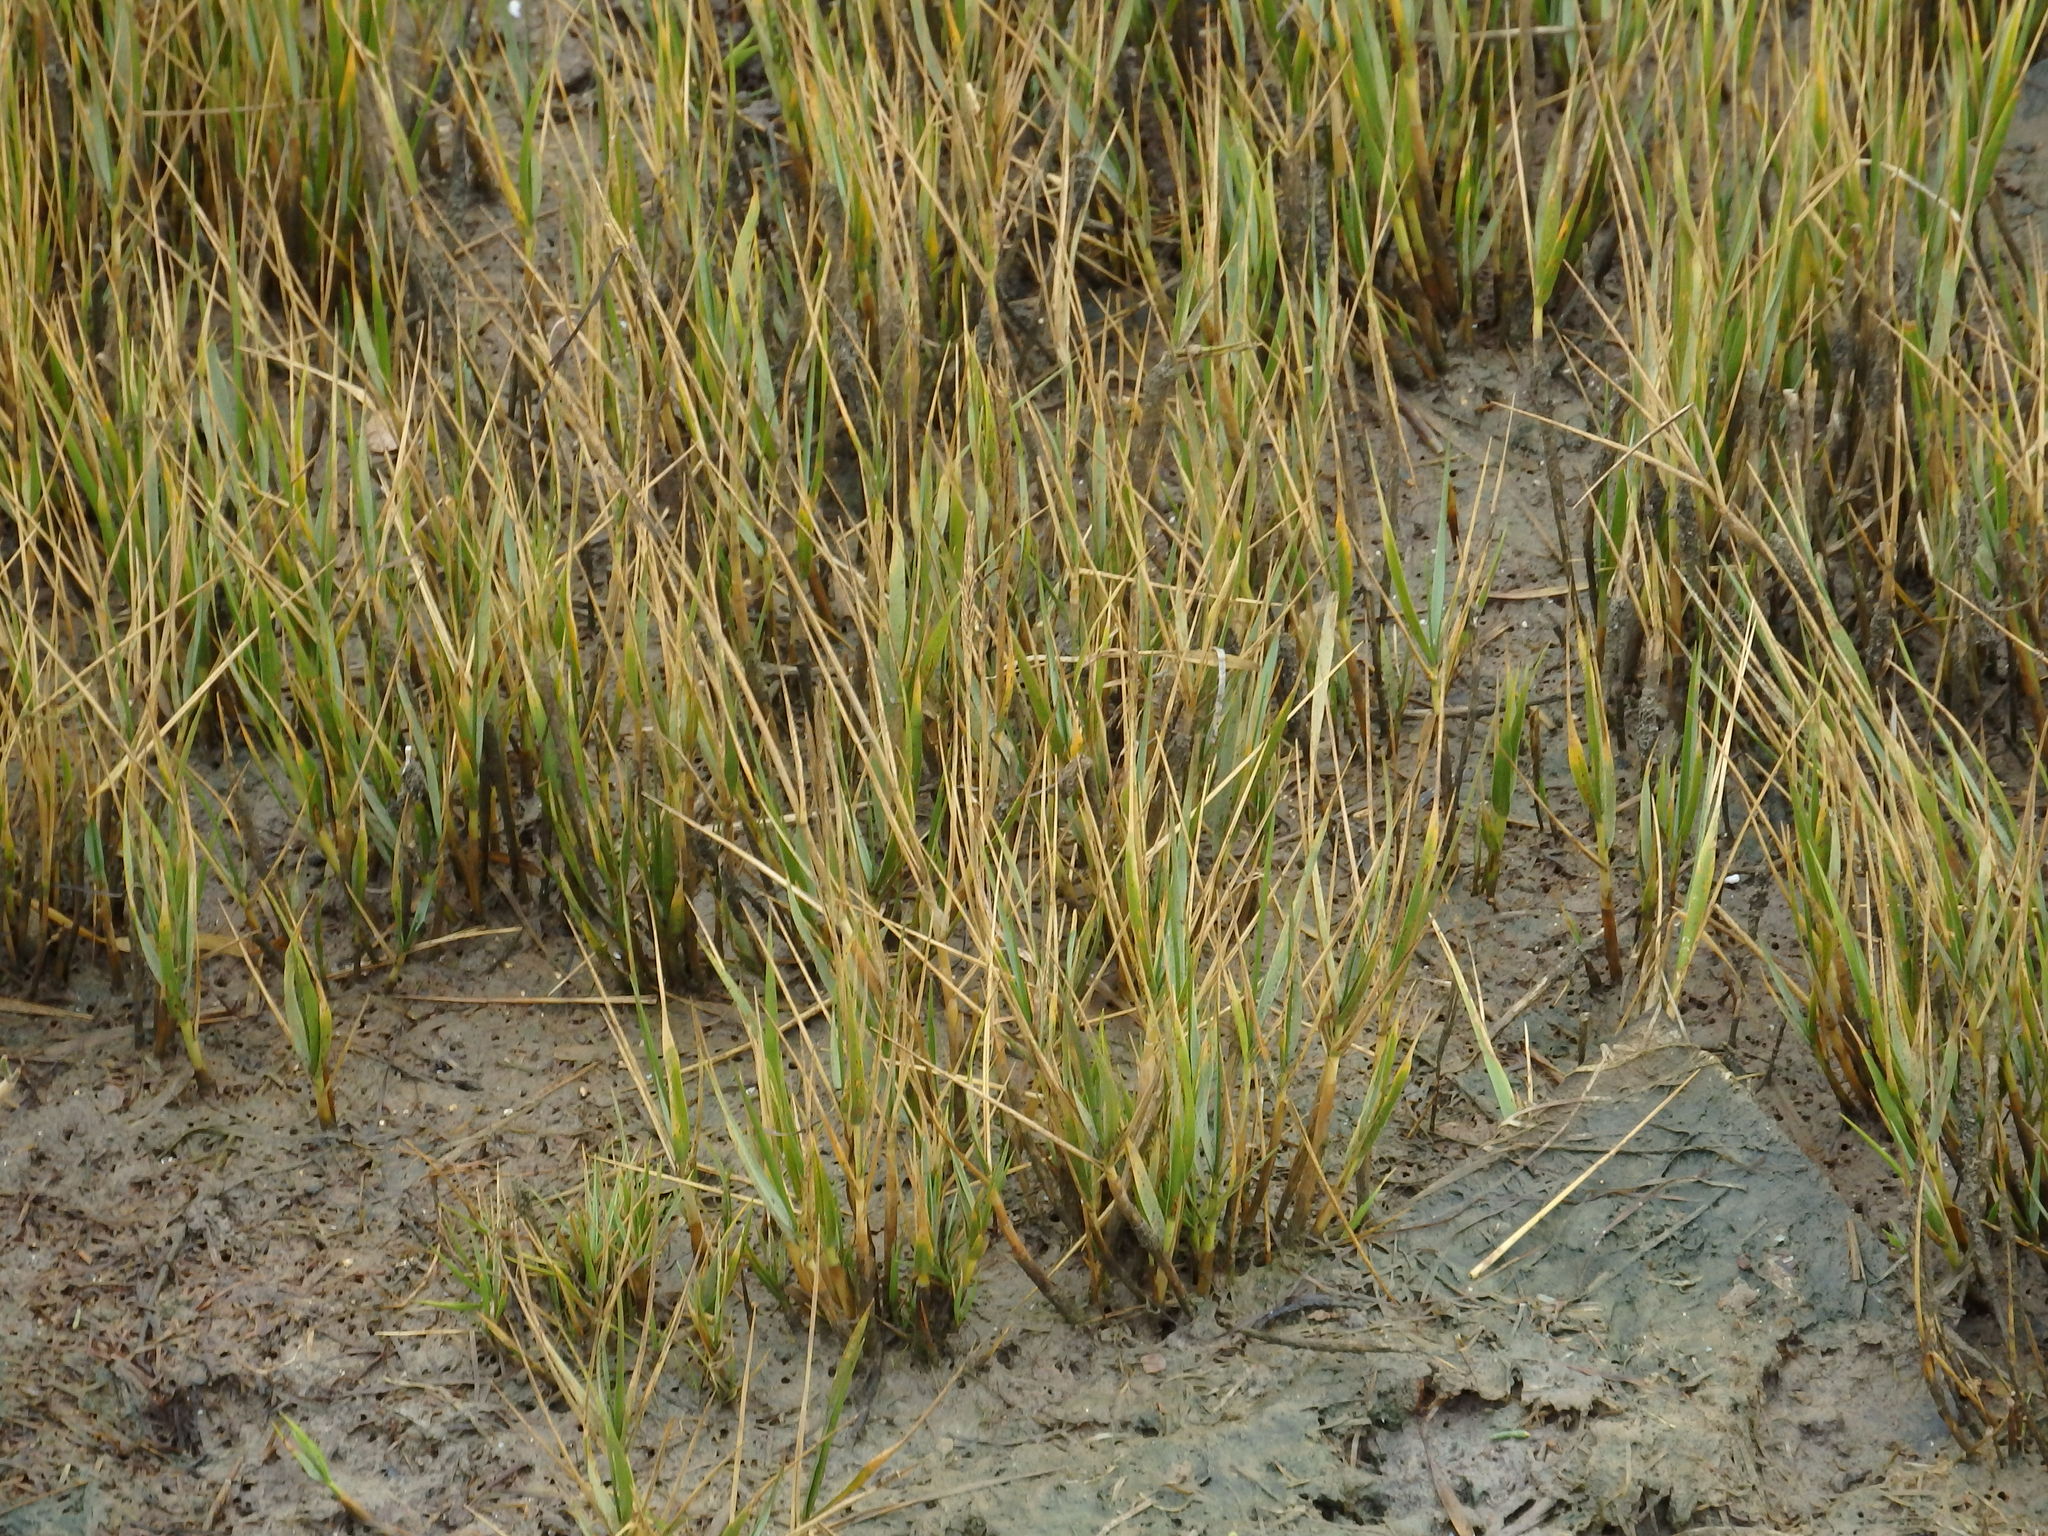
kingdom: Plantae
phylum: Tracheophyta
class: Liliopsida
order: Poales
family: Poaceae
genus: Sporobolus
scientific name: Sporobolus maritimus
